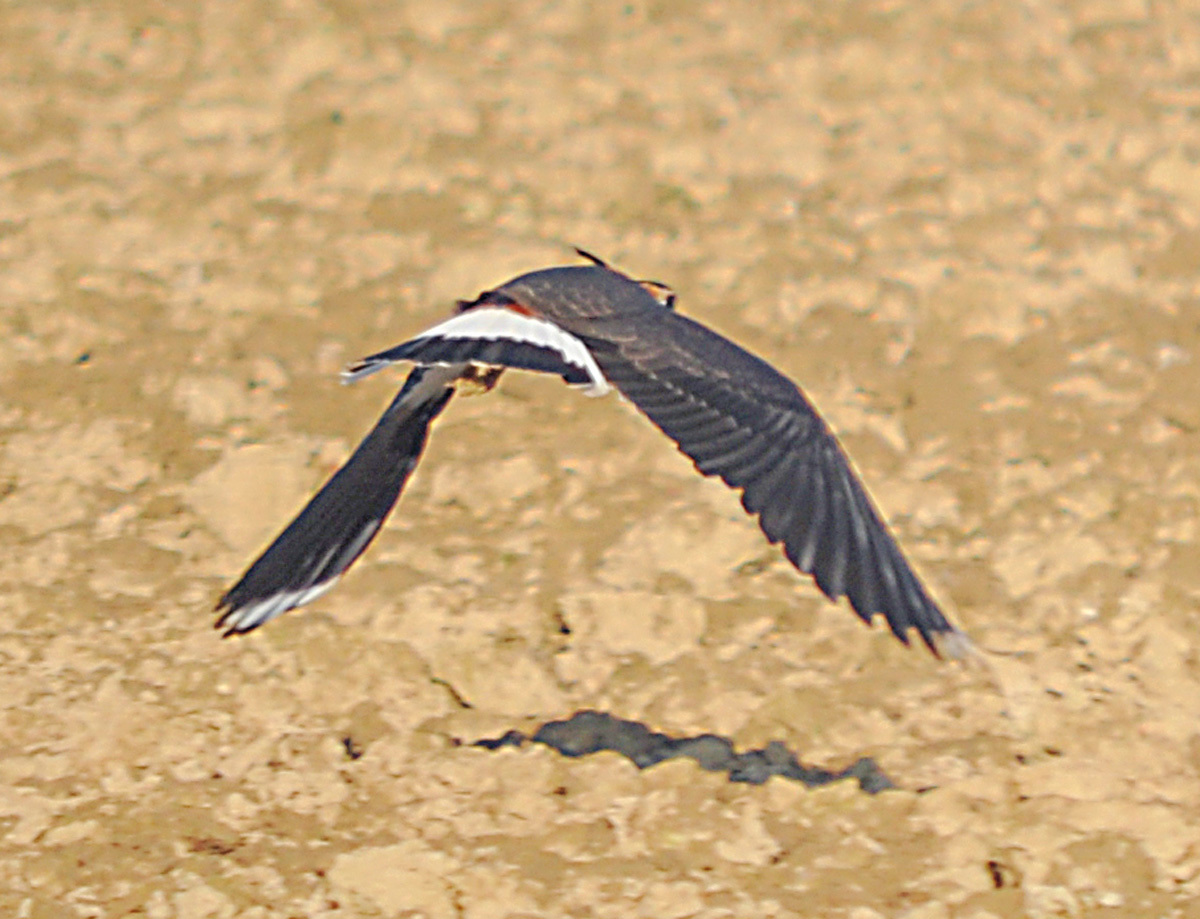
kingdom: Animalia
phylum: Chordata
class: Aves
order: Charadriiformes
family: Charadriidae
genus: Vanellus
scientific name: Vanellus vanellus
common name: Northern lapwing
